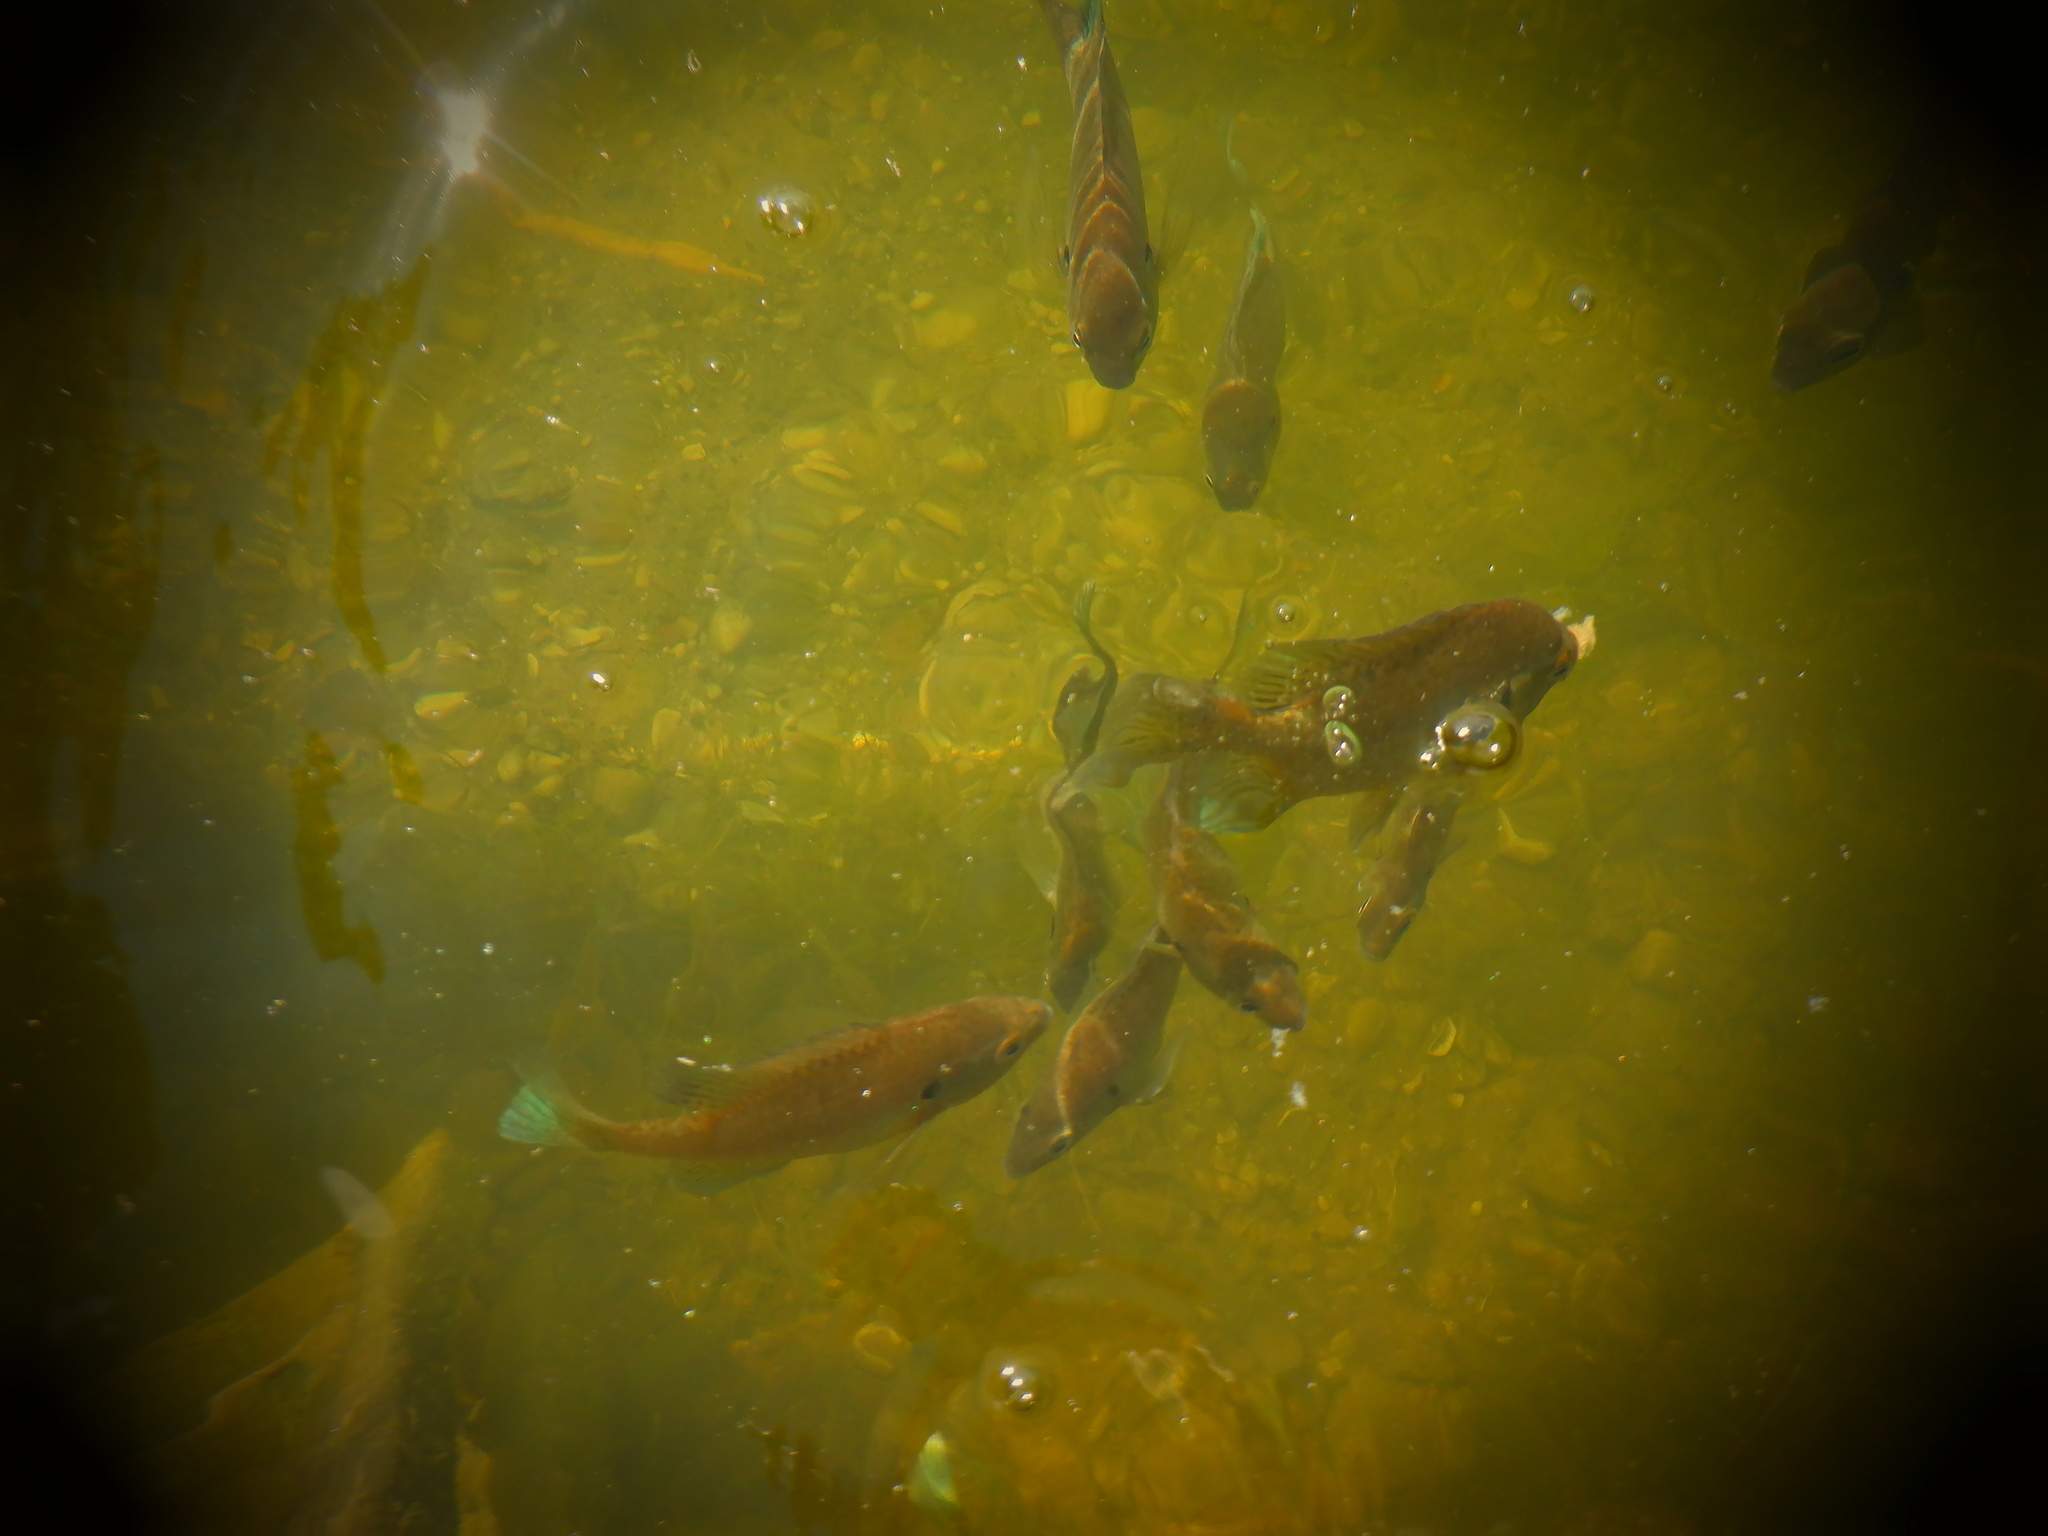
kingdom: Animalia
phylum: Chordata
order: Perciformes
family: Centrarchidae
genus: Lepomis
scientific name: Lepomis macrochirus
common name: Bluegill
